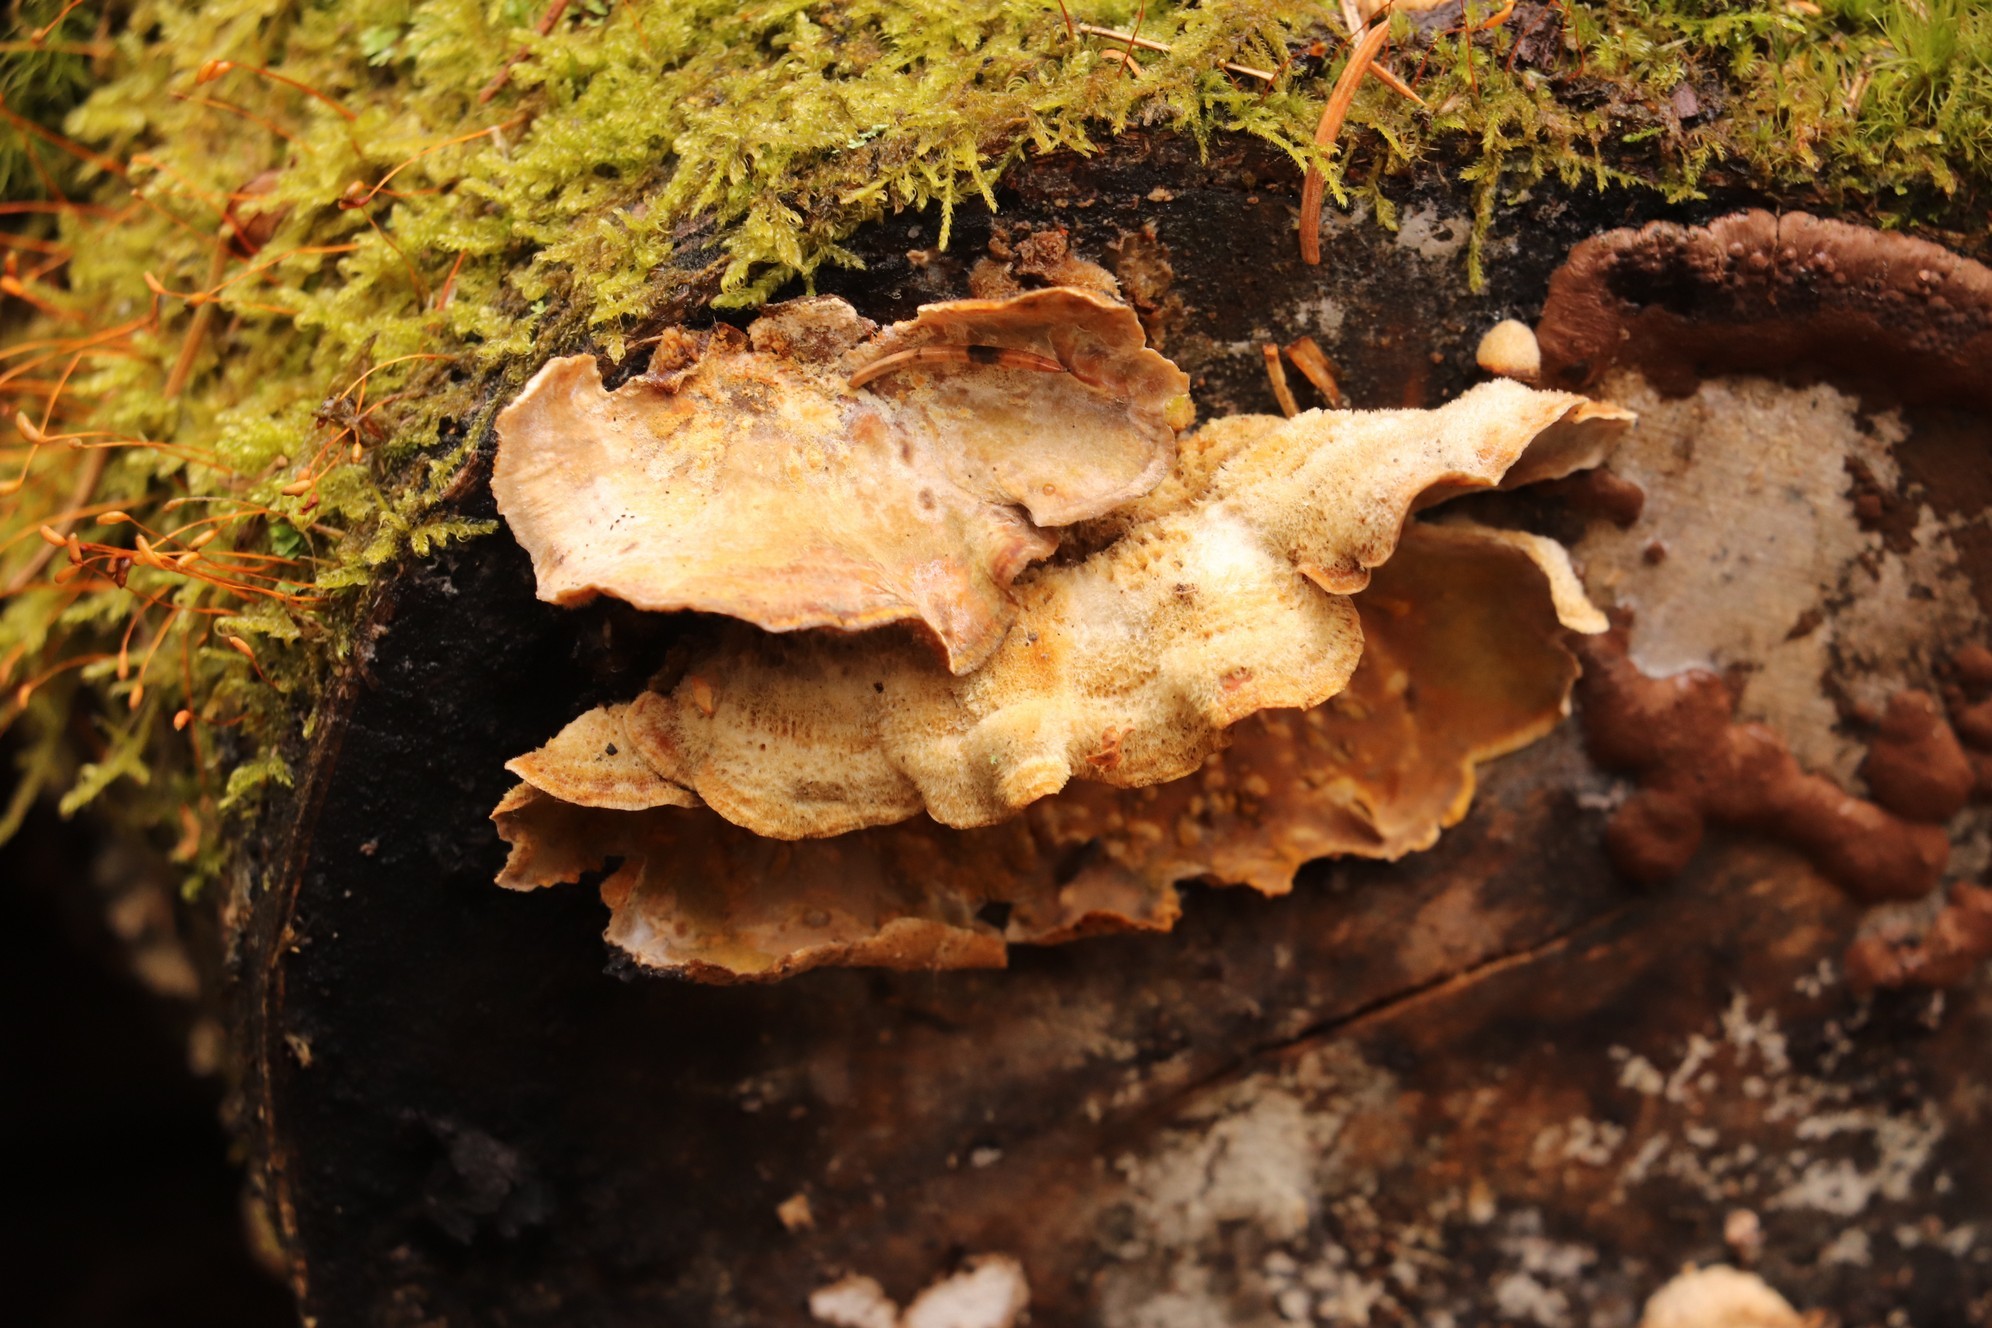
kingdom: Fungi
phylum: Basidiomycota
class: Agaricomycetes
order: Russulales
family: Stereaceae
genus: Stereum
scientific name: Stereum hirsutum
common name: Hairy curtain crust
